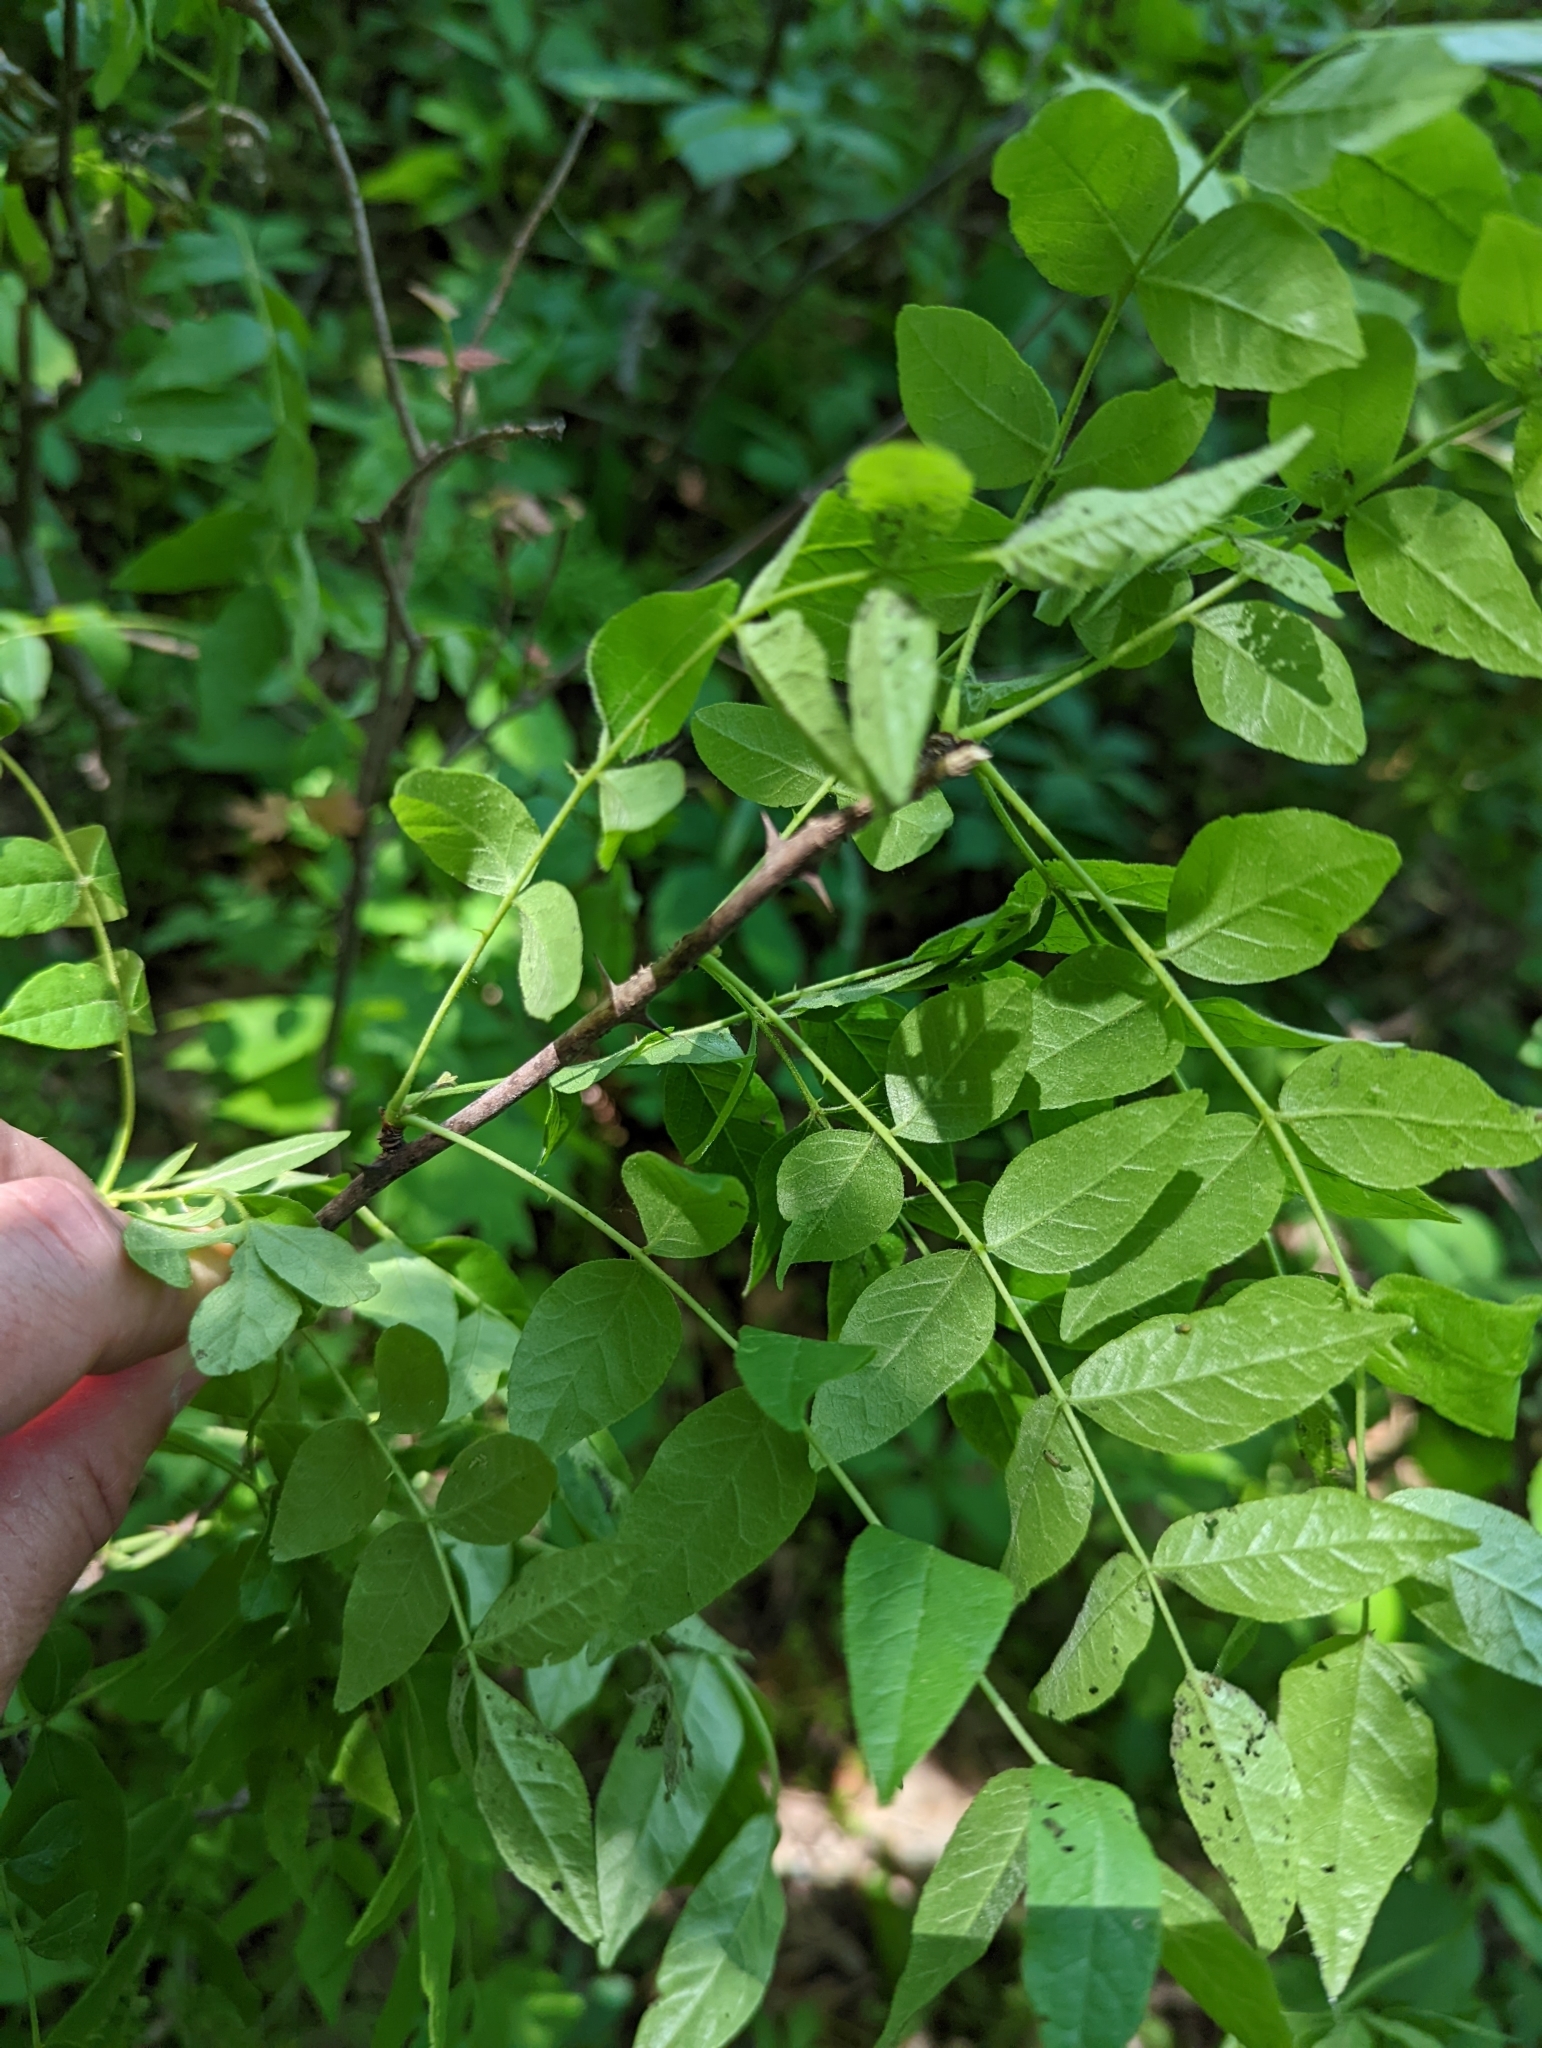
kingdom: Plantae
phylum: Tracheophyta
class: Magnoliopsida
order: Sapindales
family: Rutaceae
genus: Zanthoxylum
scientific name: Zanthoxylum americanum
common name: Northern prickly-ash
